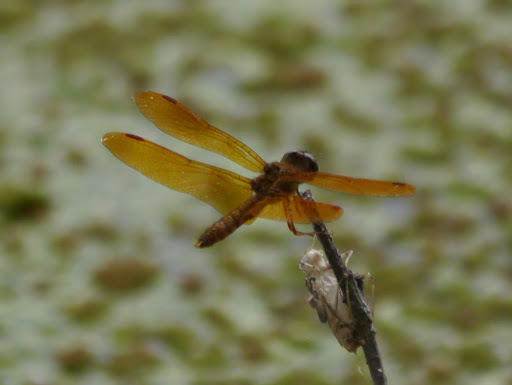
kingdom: Animalia
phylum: Arthropoda
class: Insecta
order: Odonata
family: Libellulidae
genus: Perithemis
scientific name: Perithemis tenera
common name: Eastern amberwing
